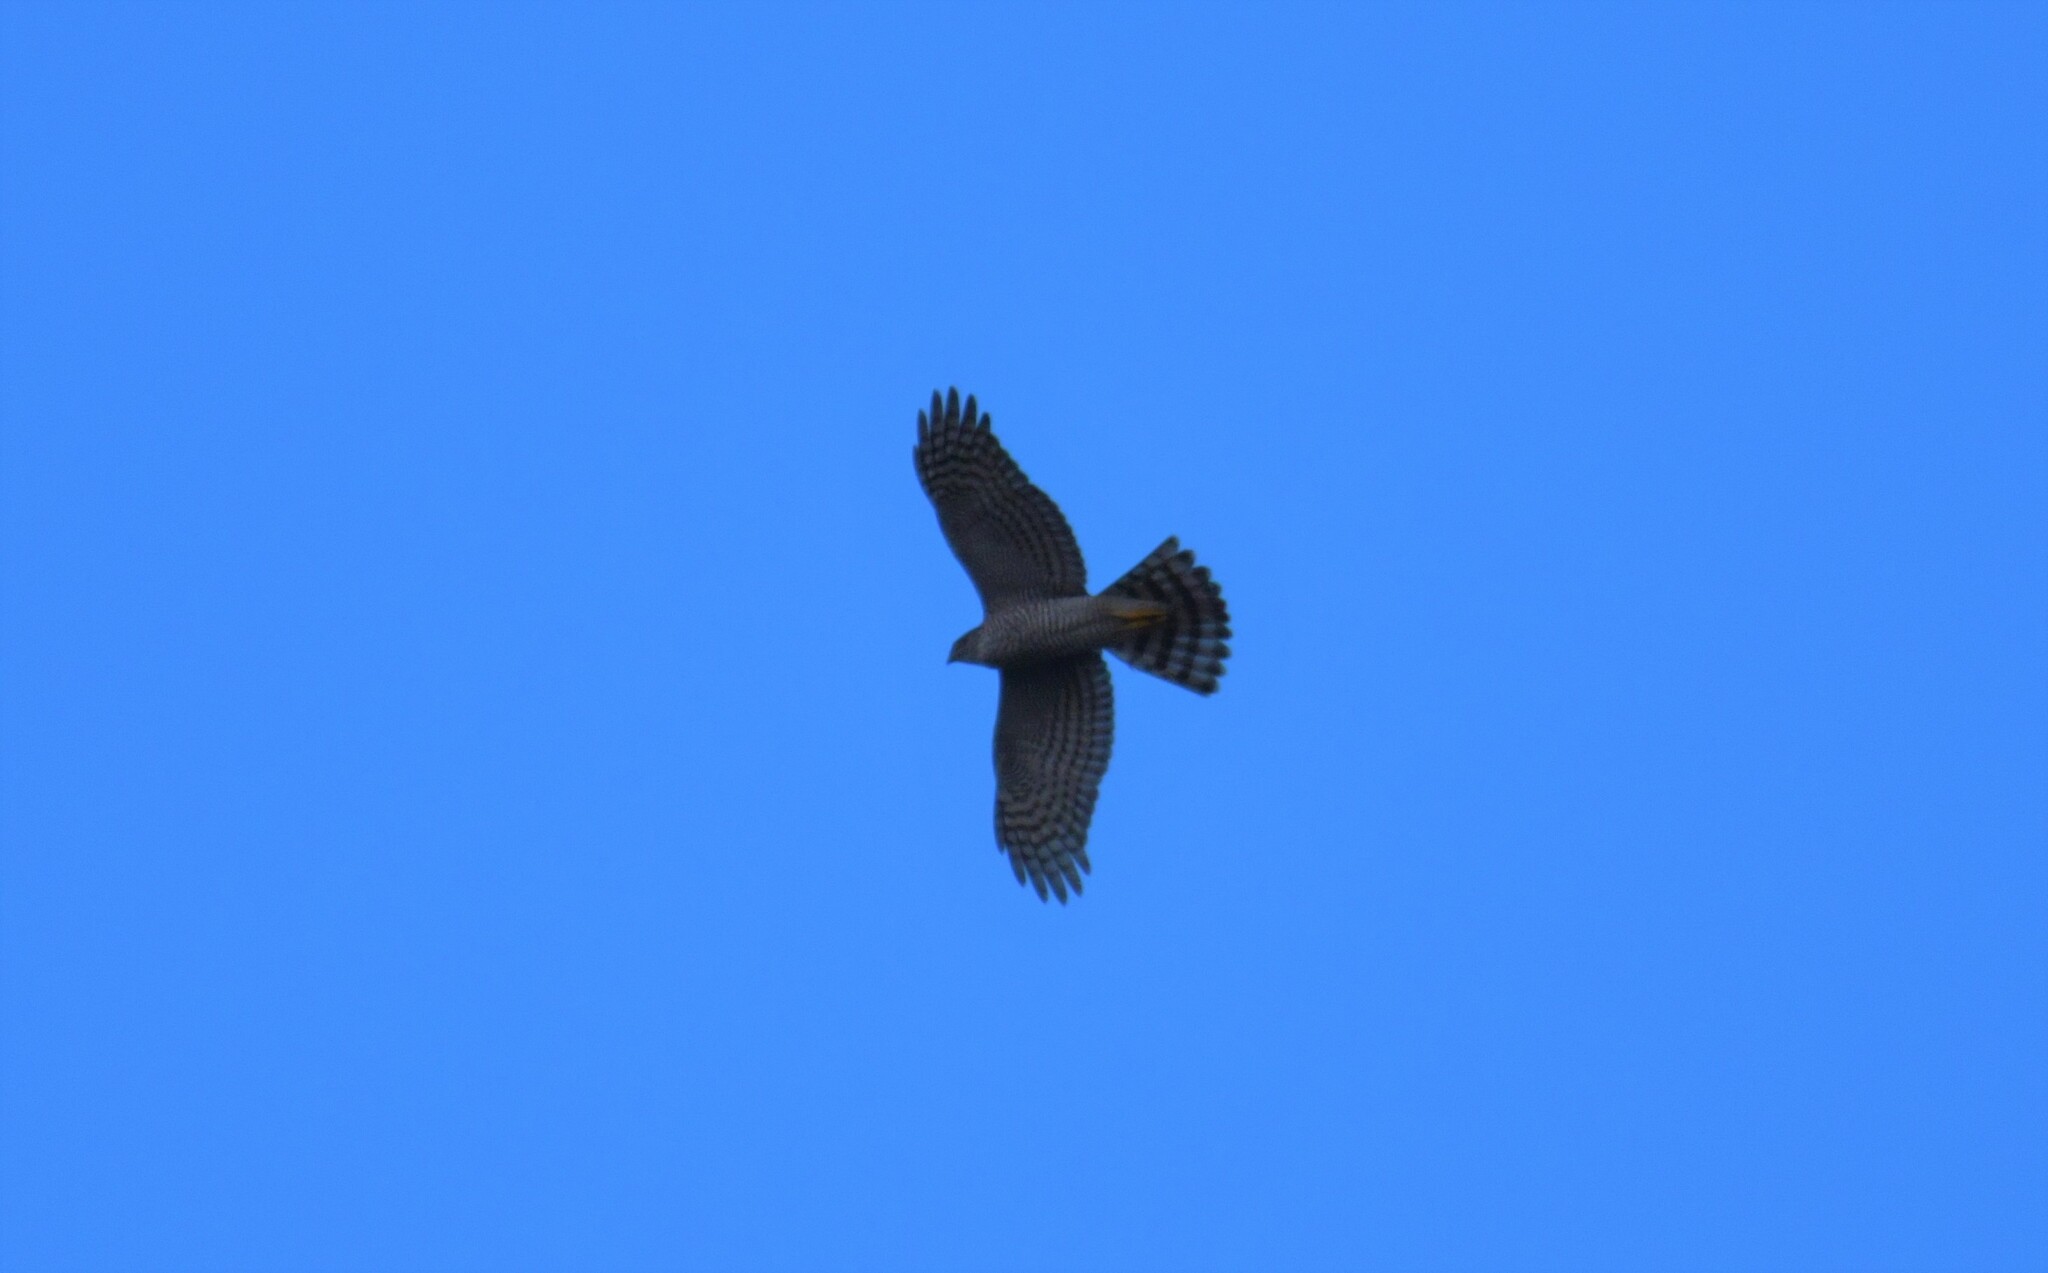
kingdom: Animalia
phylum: Chordata
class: Aves
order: Accipitriformes
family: Accipitridae
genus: Accipiter
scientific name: Accipiter nisus
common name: Eurasian sparrowhawk
